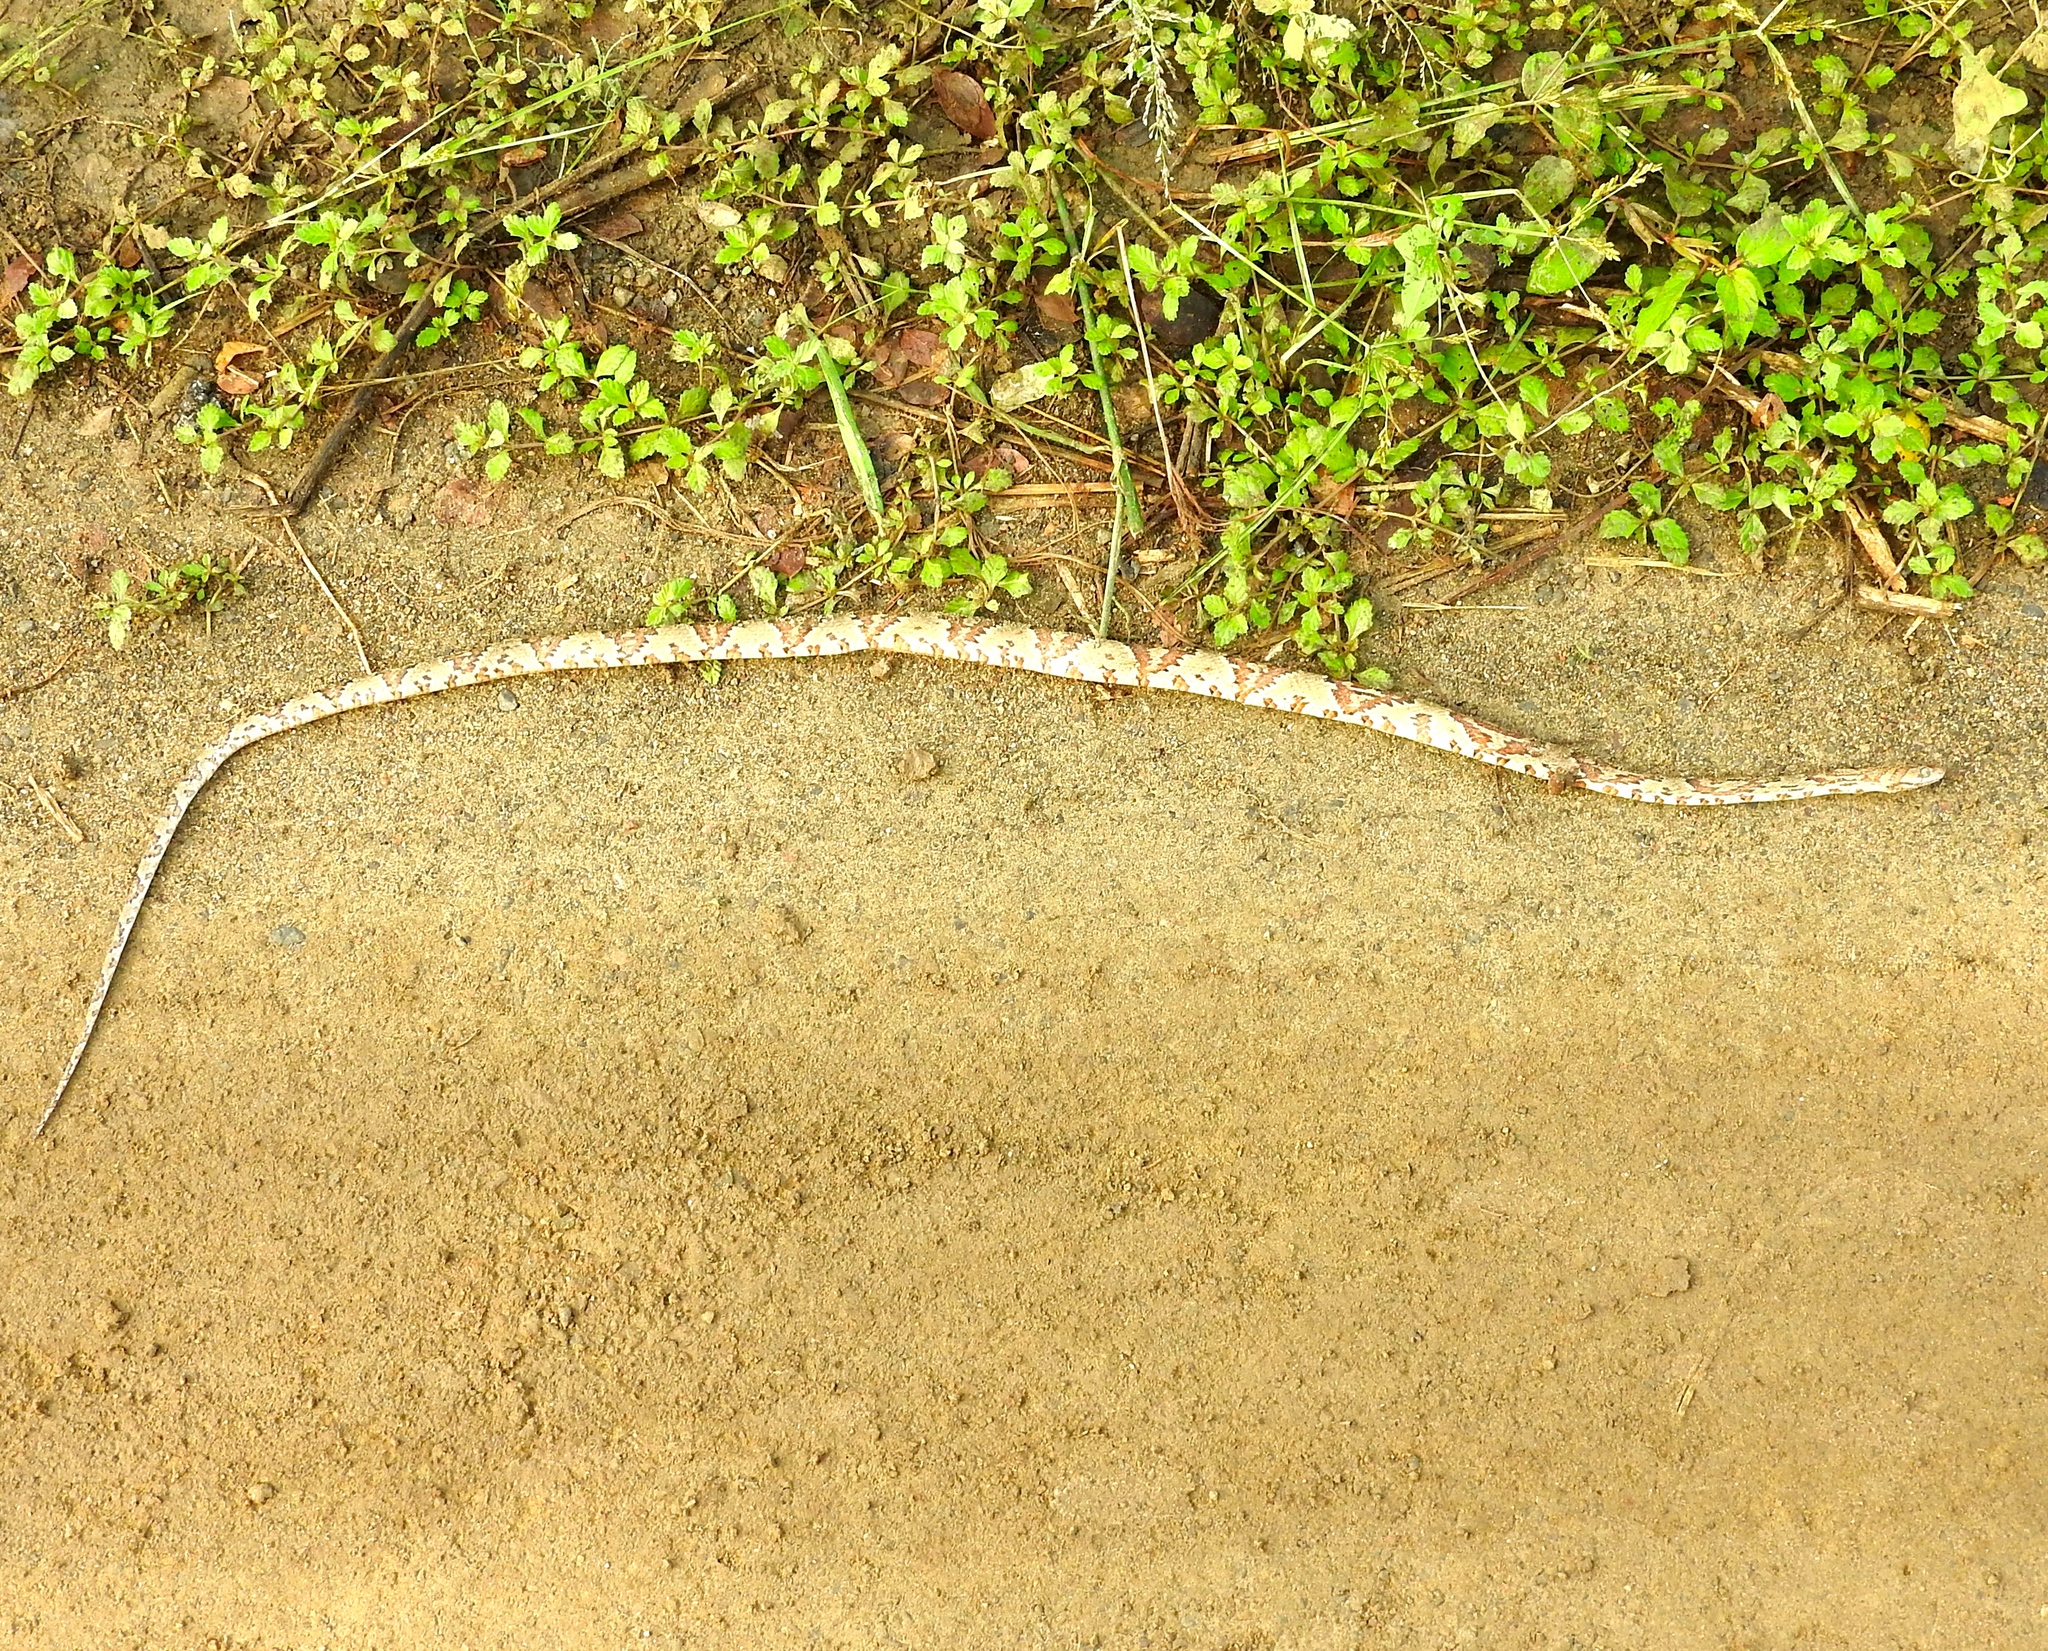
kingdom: Animalia
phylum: Chordata
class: Squamata
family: Colubridae
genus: Trimorphodon
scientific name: Trimorphodon paucimaculatus
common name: Sinaloan lyresnake
